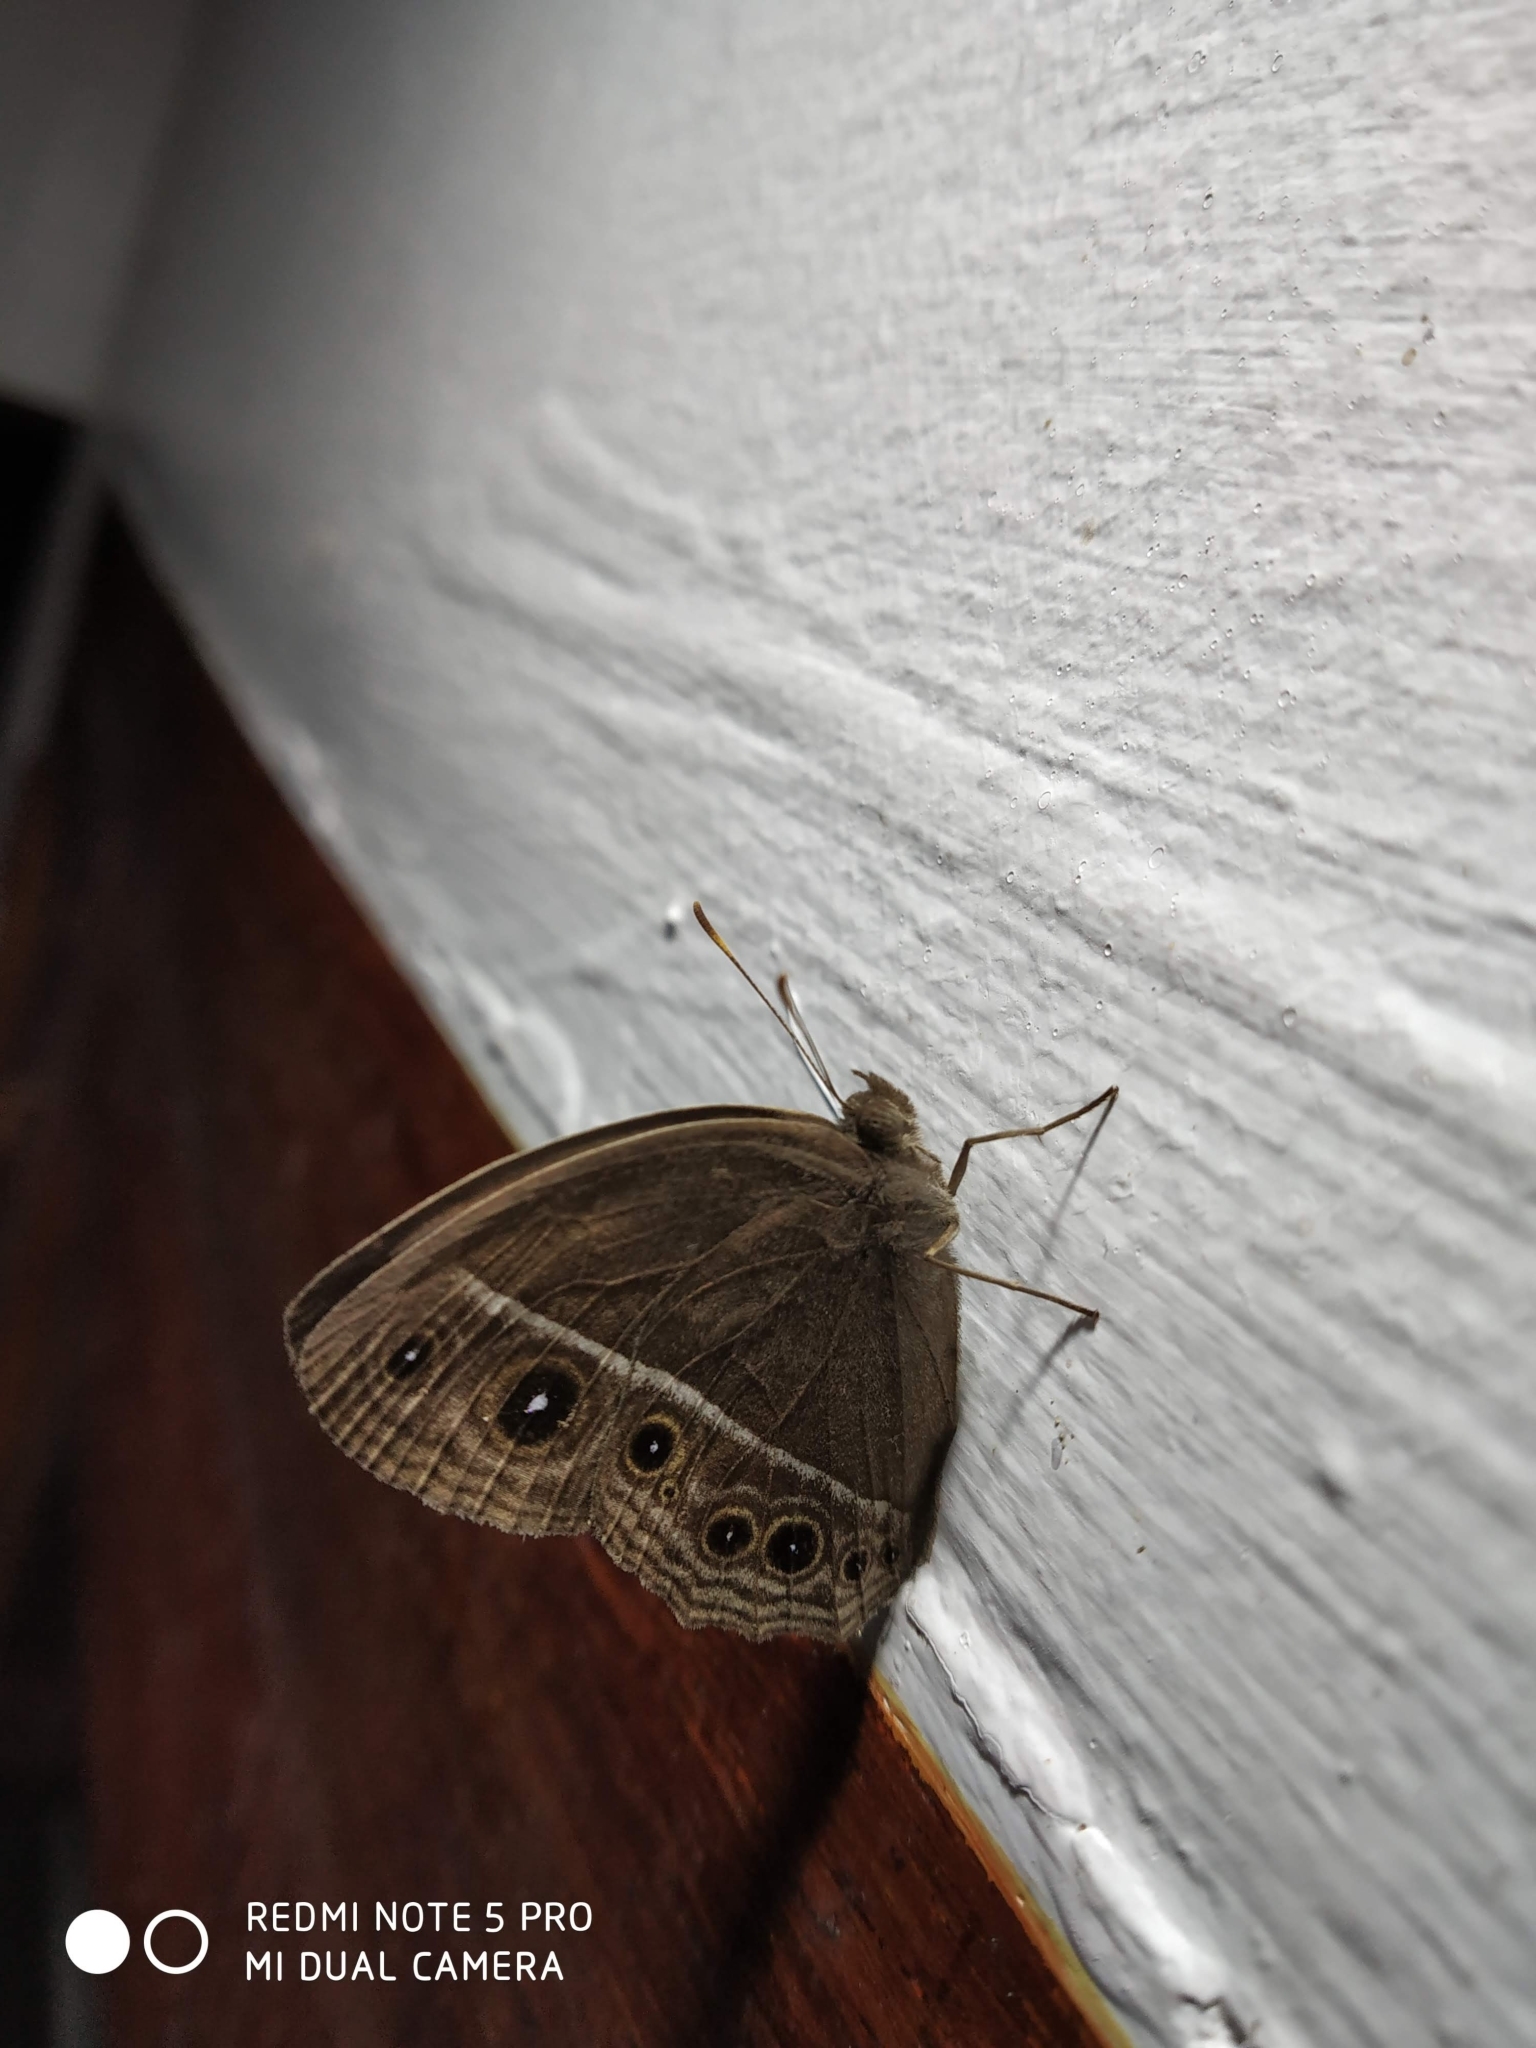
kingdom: Animalia
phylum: Arthropoda
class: Insecta
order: Lepidoptera
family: Nymphalidae
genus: Mycalesis
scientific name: Mycalesis mineus
